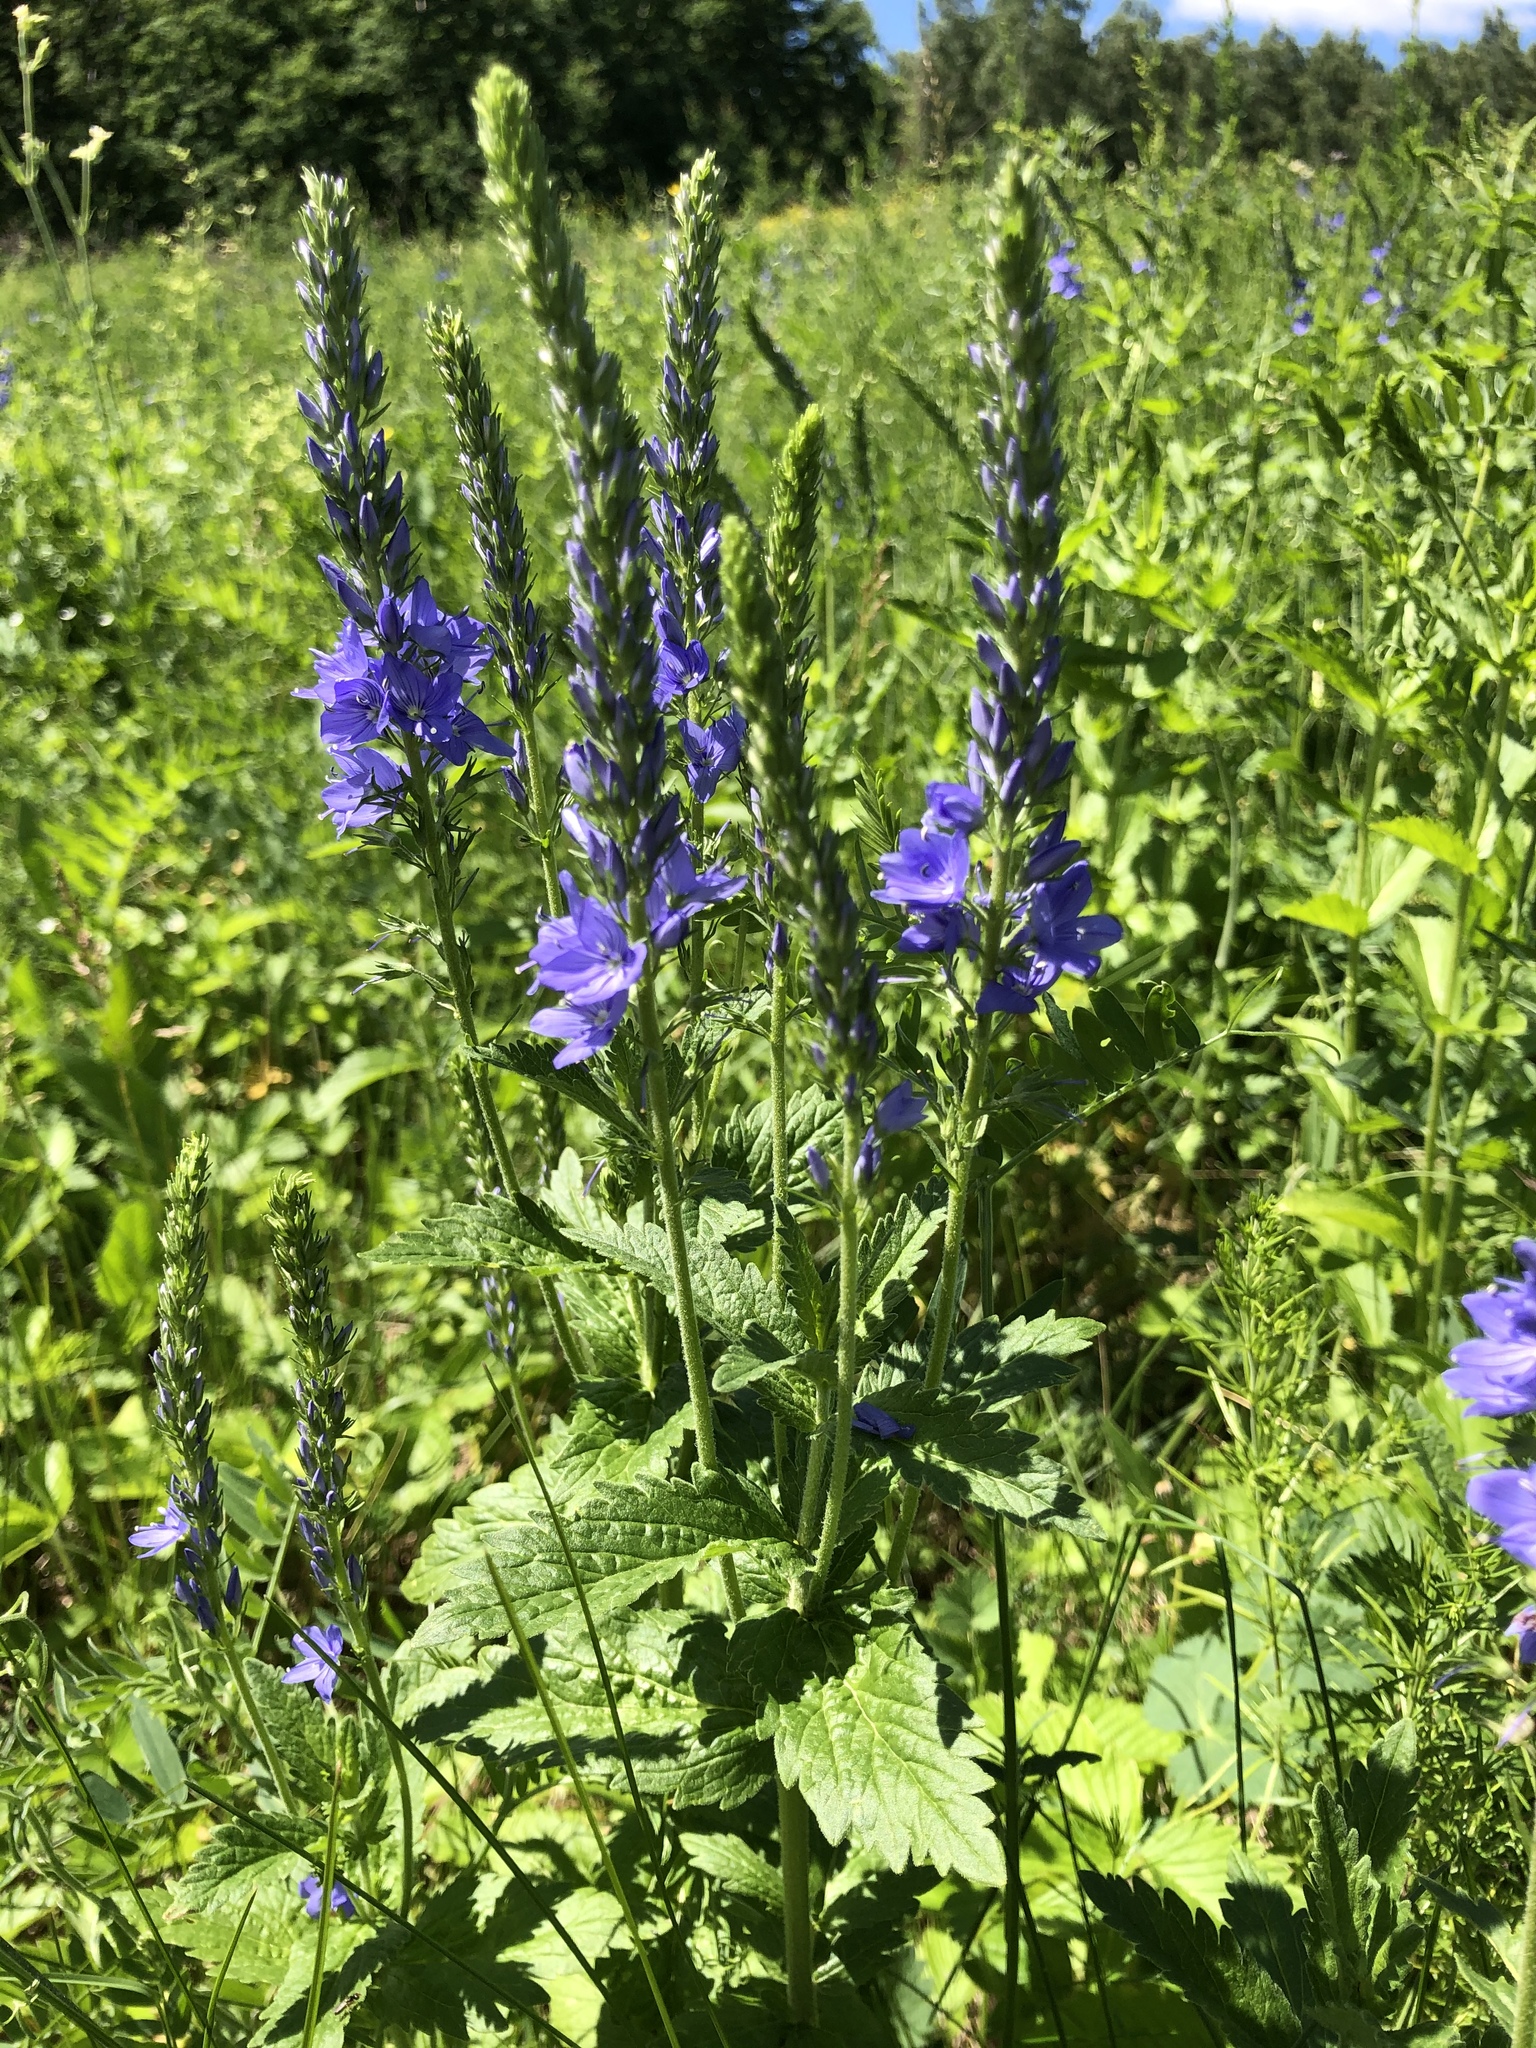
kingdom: Plantae
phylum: Tracheophyta
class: Magnoliopsida
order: Lamiales
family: Plantaginaceae
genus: Veronica
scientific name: Veronica teucrium
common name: Large speedwell
